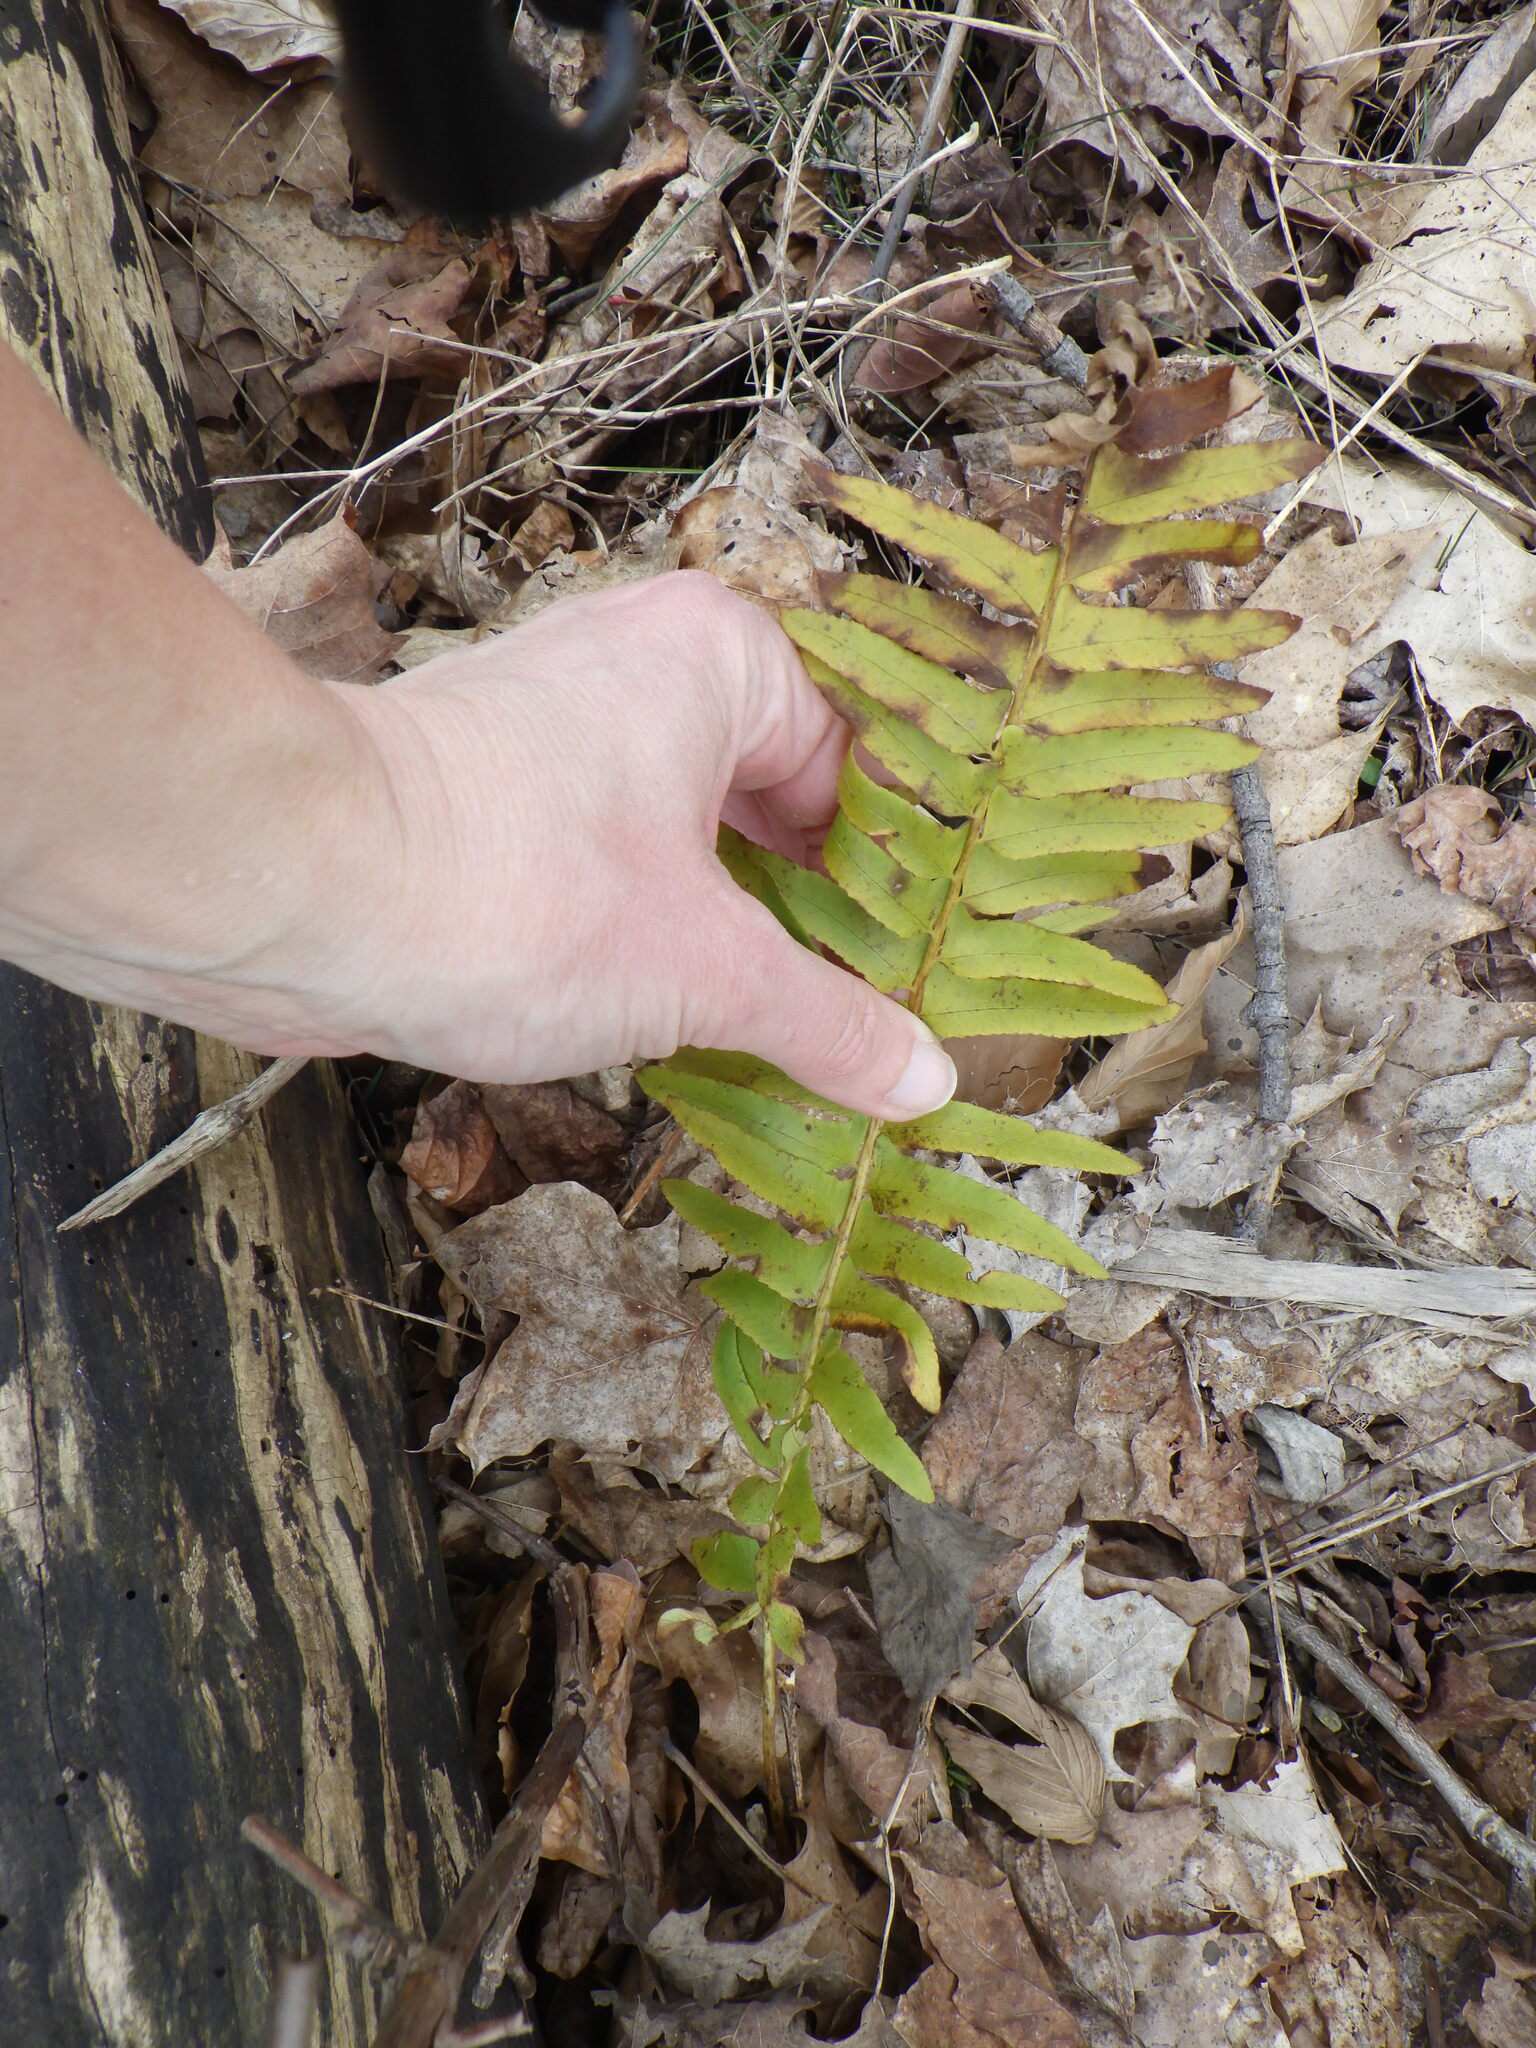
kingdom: Plantae
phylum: Tracheophyta
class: Polypodiopsida
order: Polypodiales
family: Dryopteridaceae
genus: Polystichum
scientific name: Polystichum acrostichoides
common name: Christmas fern
